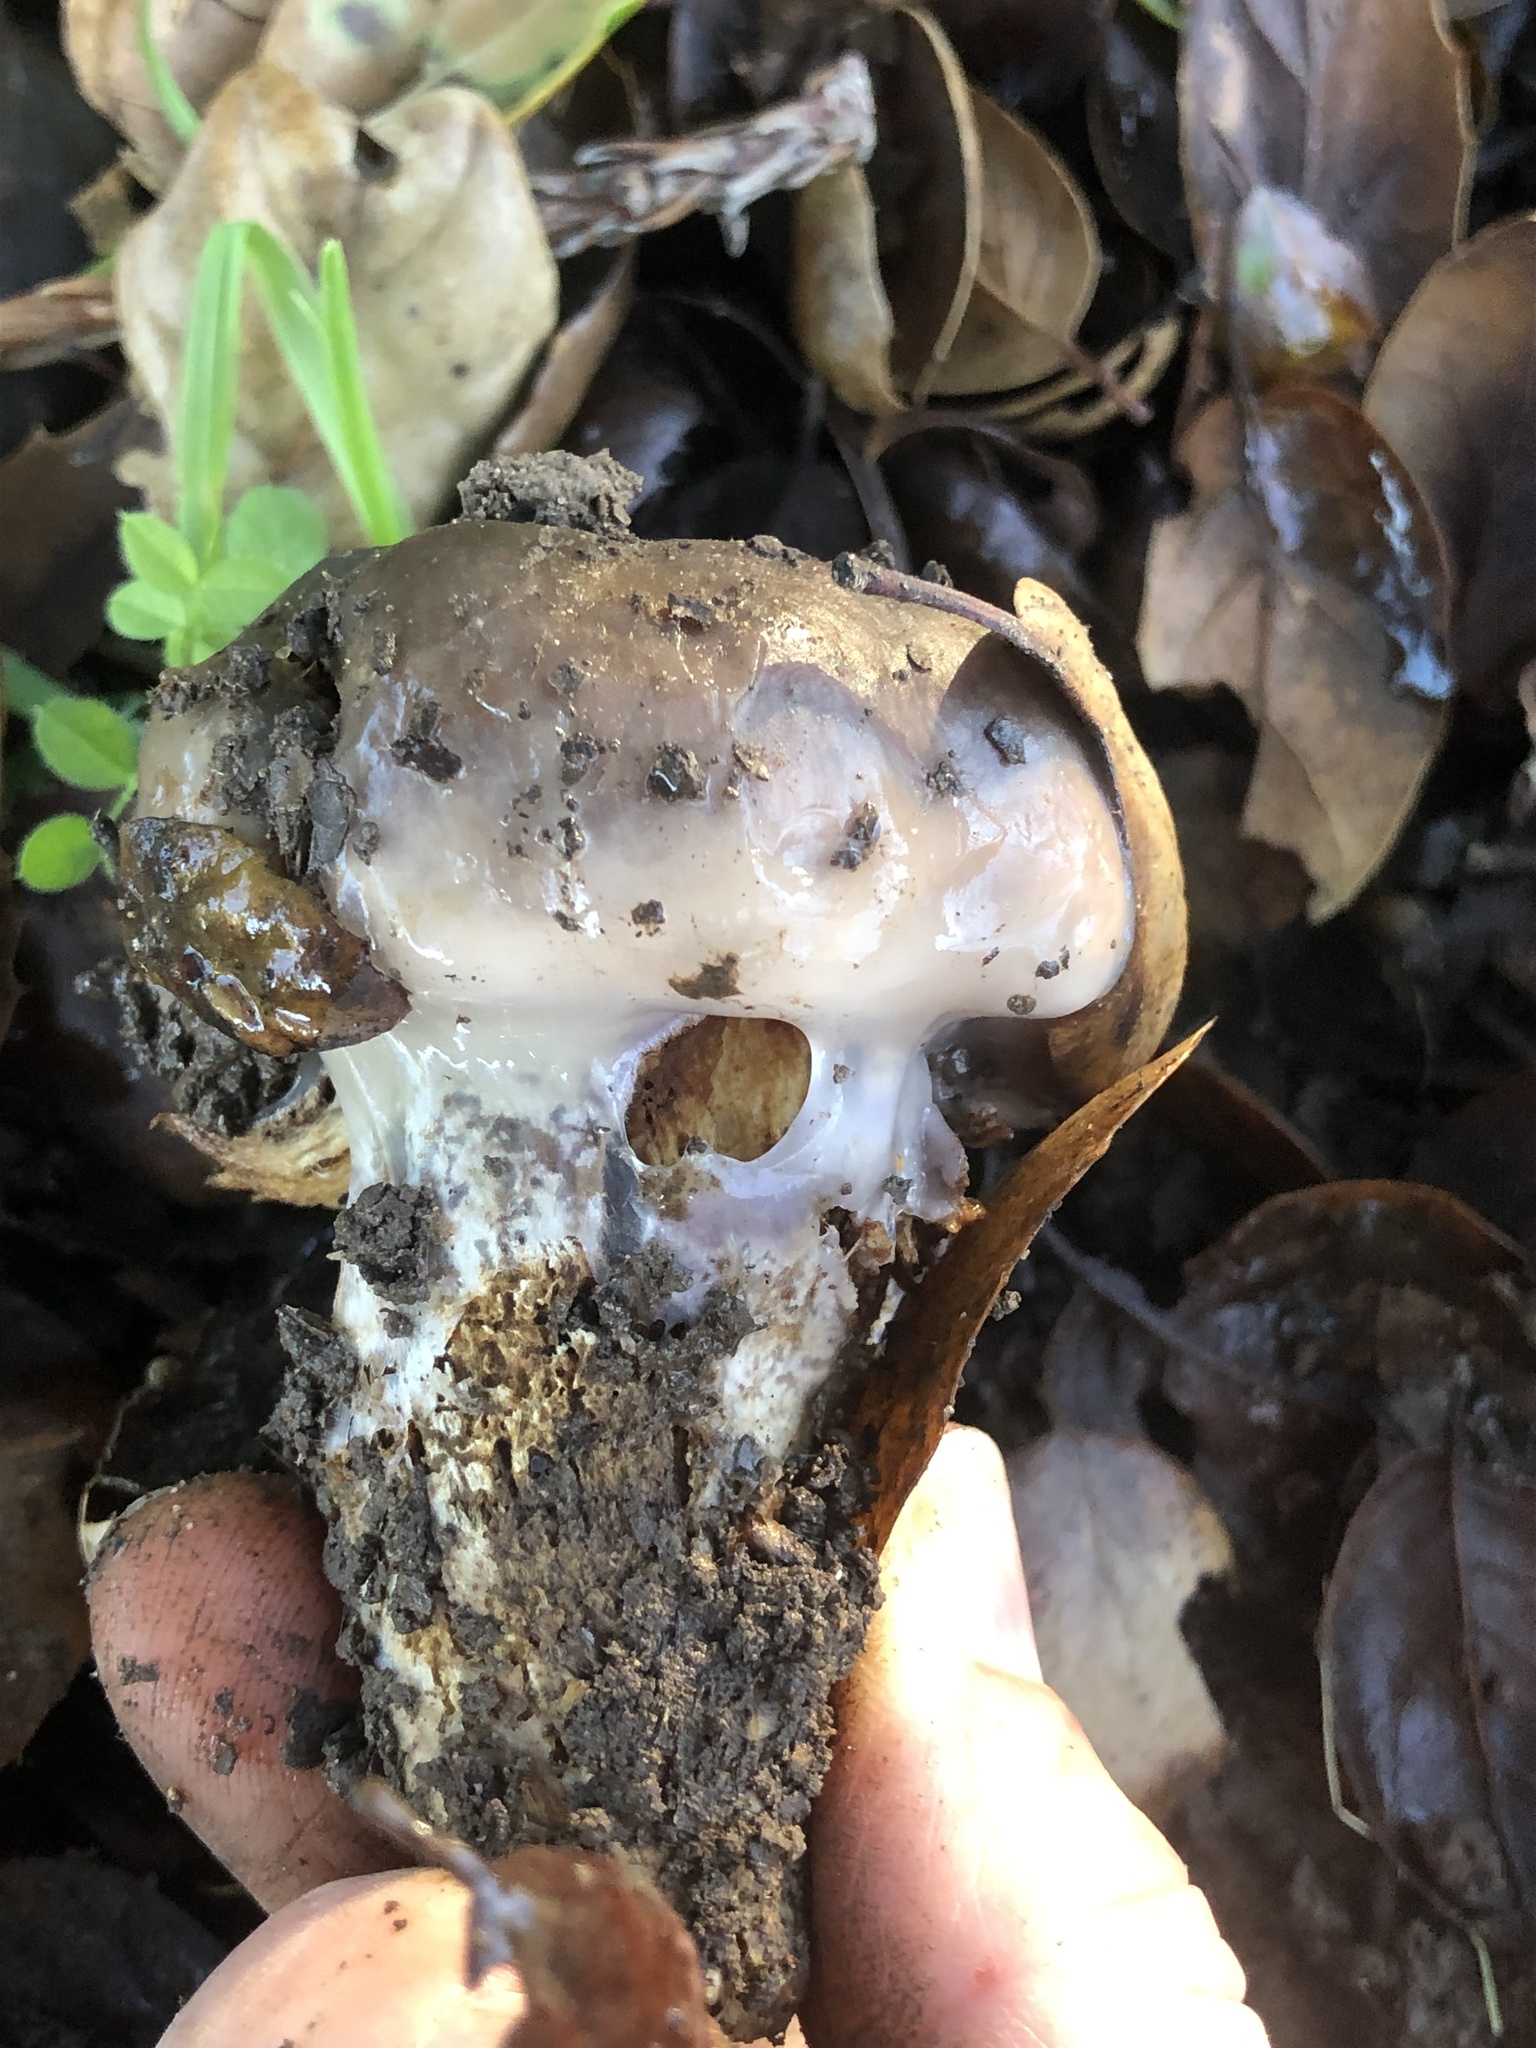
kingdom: Fungi
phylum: Basidiomycota
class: Agaricomycetes
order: Agaricales
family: Cortinariaceae
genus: Cortinarius
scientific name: Cortinarius glutinosoarmillatus
